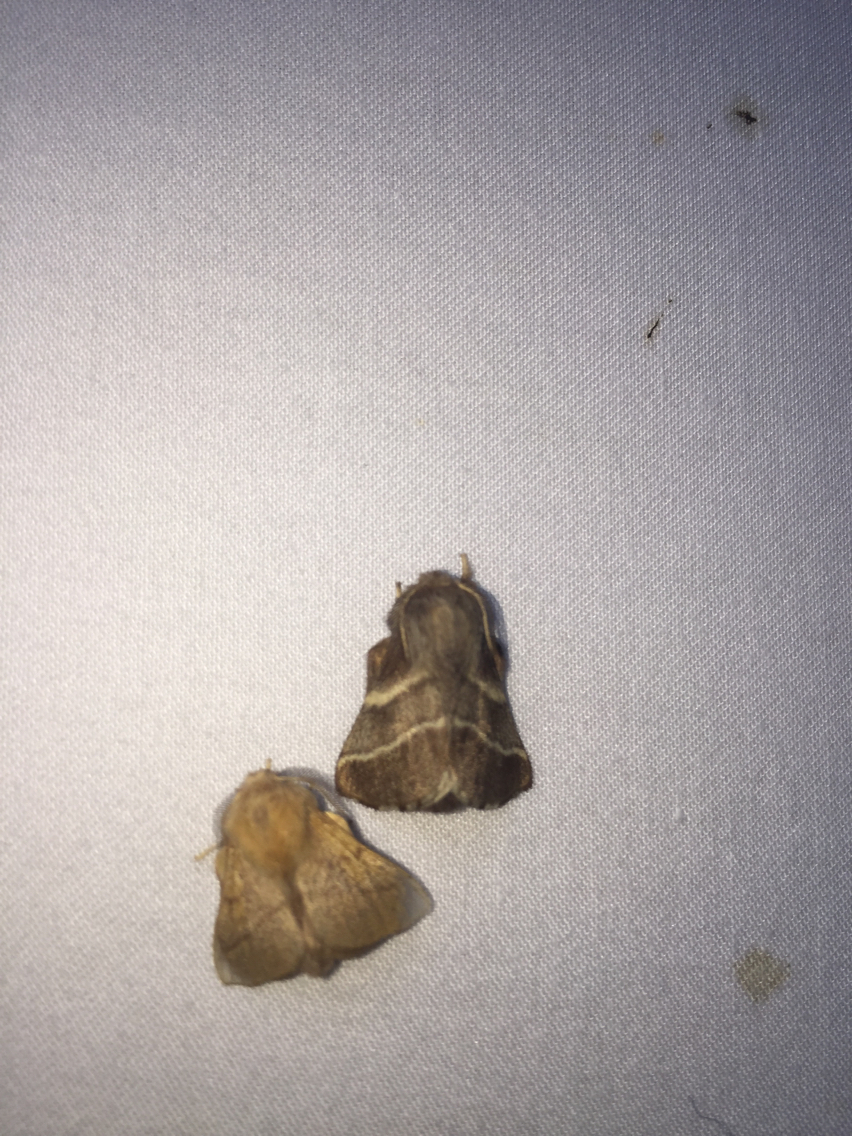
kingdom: Animalia
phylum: Arthropoda
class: Insecta
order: Lepidoptera
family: Lasiocampidae
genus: Malacosoma
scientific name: Malacosoma americana
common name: Eastern tent caterpillar moth
